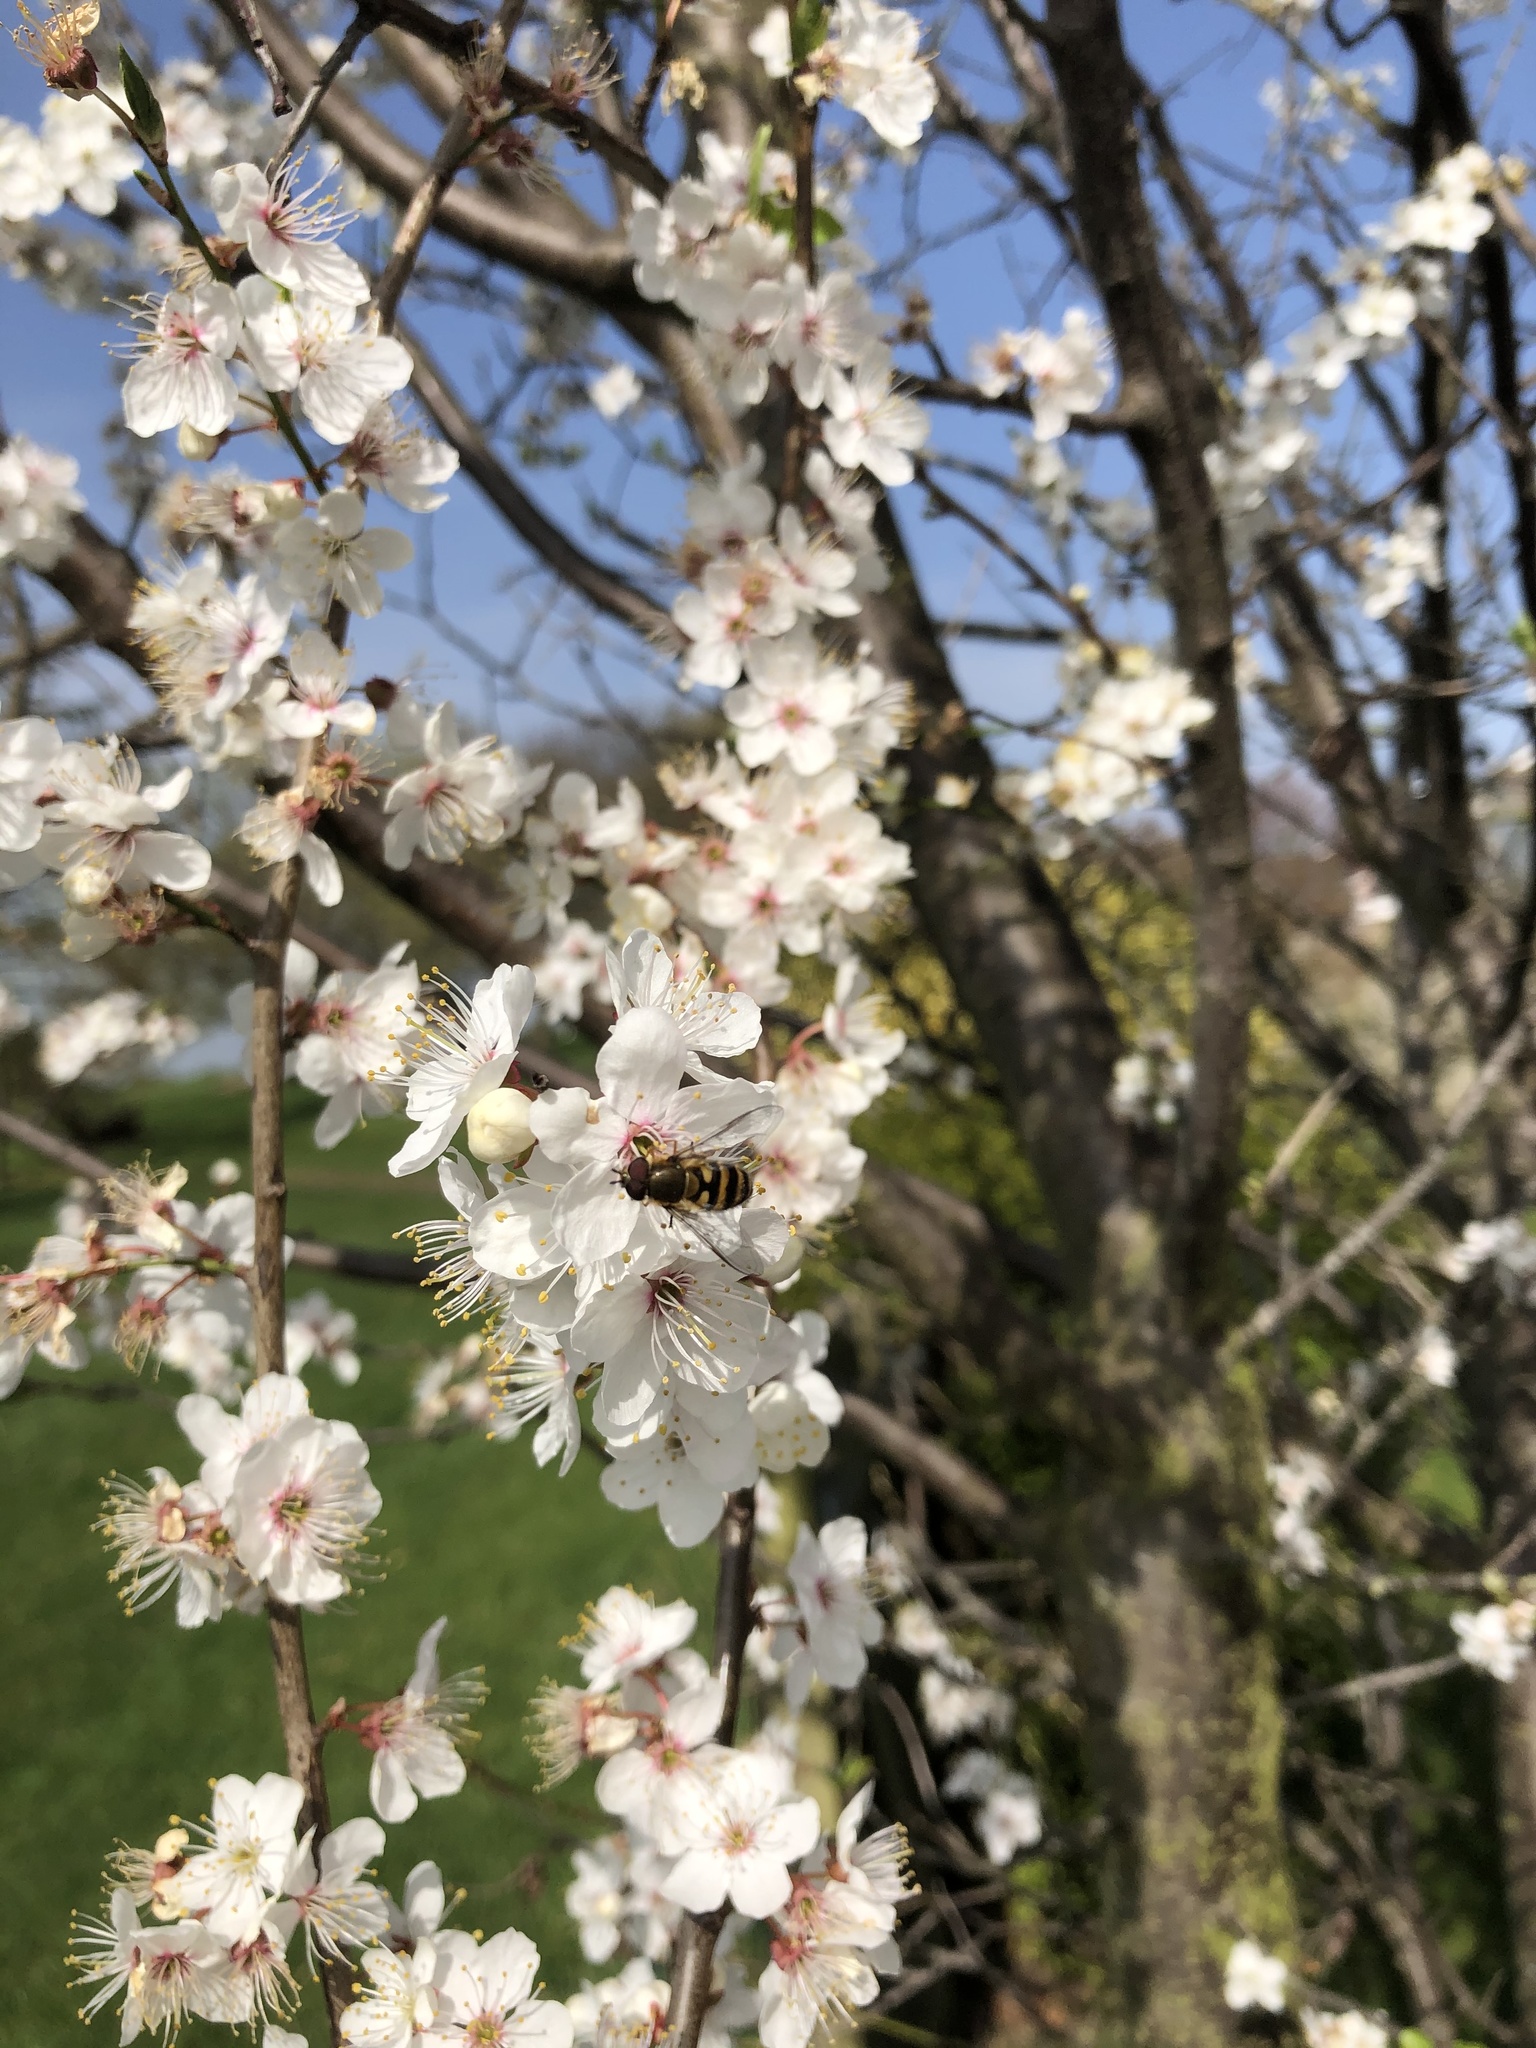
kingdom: Animalia
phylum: Arthropoda
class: Insecta
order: Diptera
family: Syrphidae
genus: Syrphus
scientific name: Syrphus
